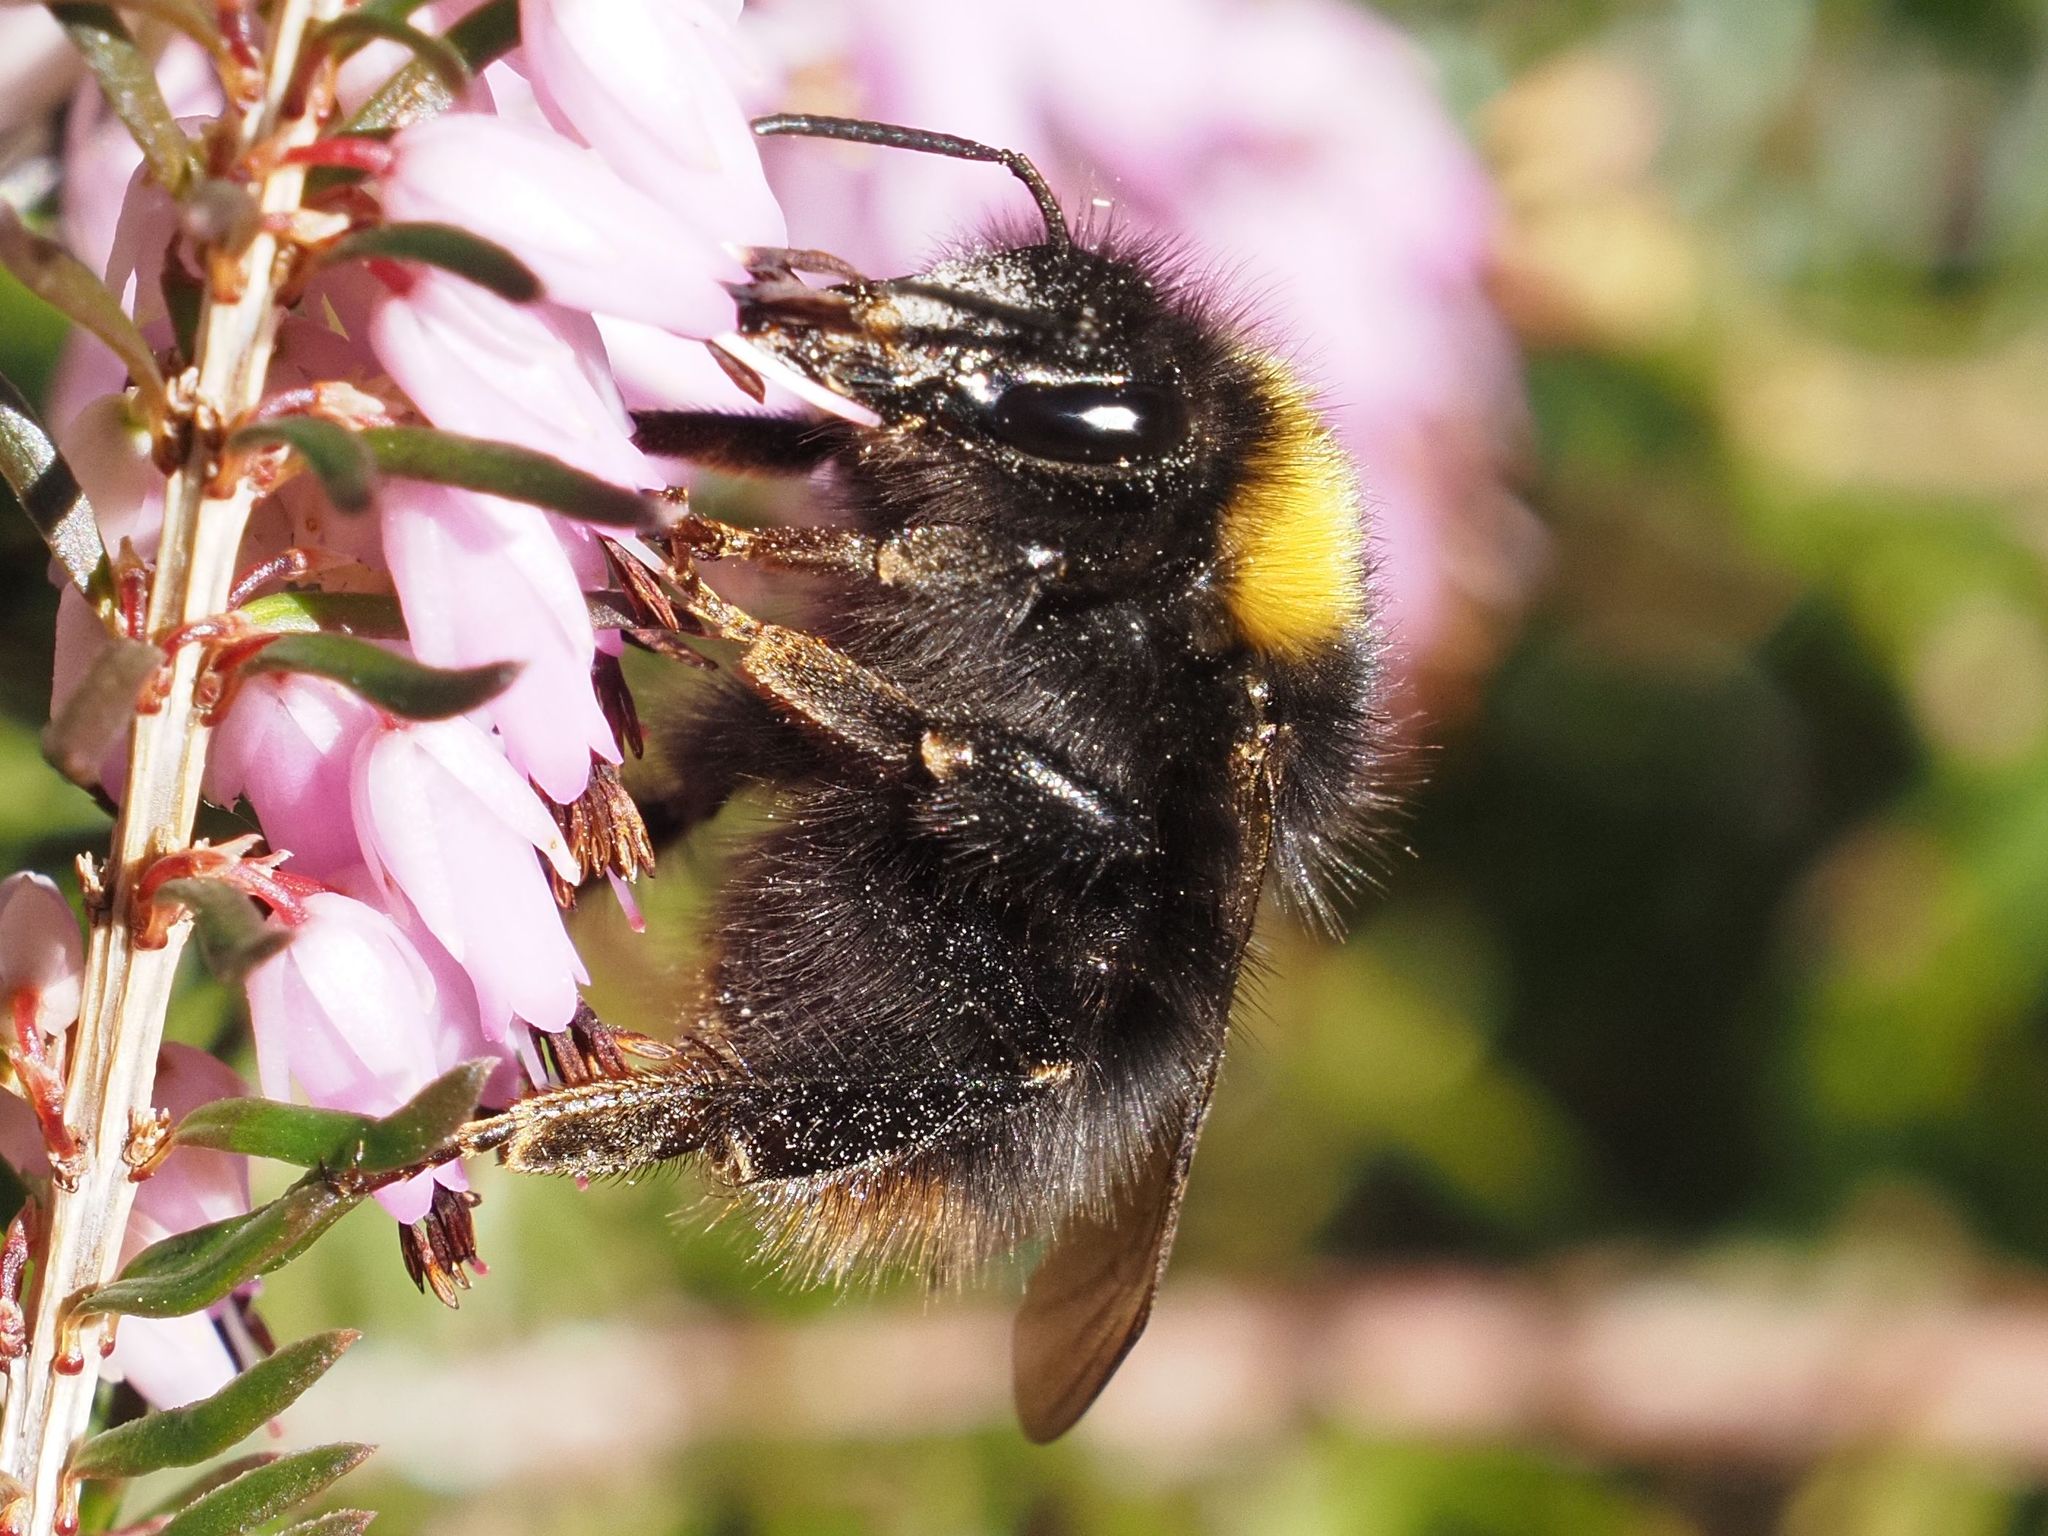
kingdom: Animalia
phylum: Arthropoda
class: Insecta
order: Hymenoptera
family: Apidae
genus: Bombus
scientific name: Bombus pratorum
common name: Early humble-bee
